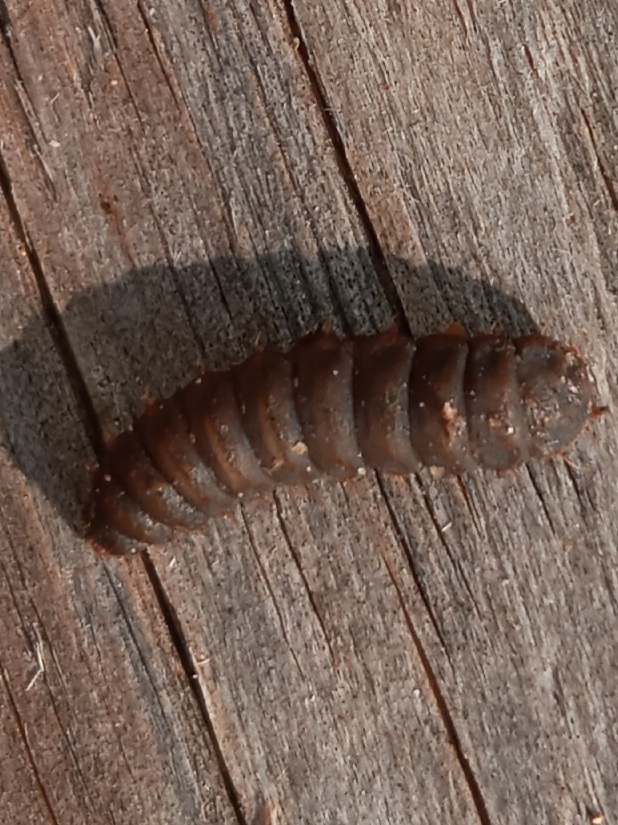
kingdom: Animalia
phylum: Arthropoda
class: Insecta
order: Diptera
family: Stratiomyidae
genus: Hermetia
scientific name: Hermetia illucens
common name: Black soldier fly
